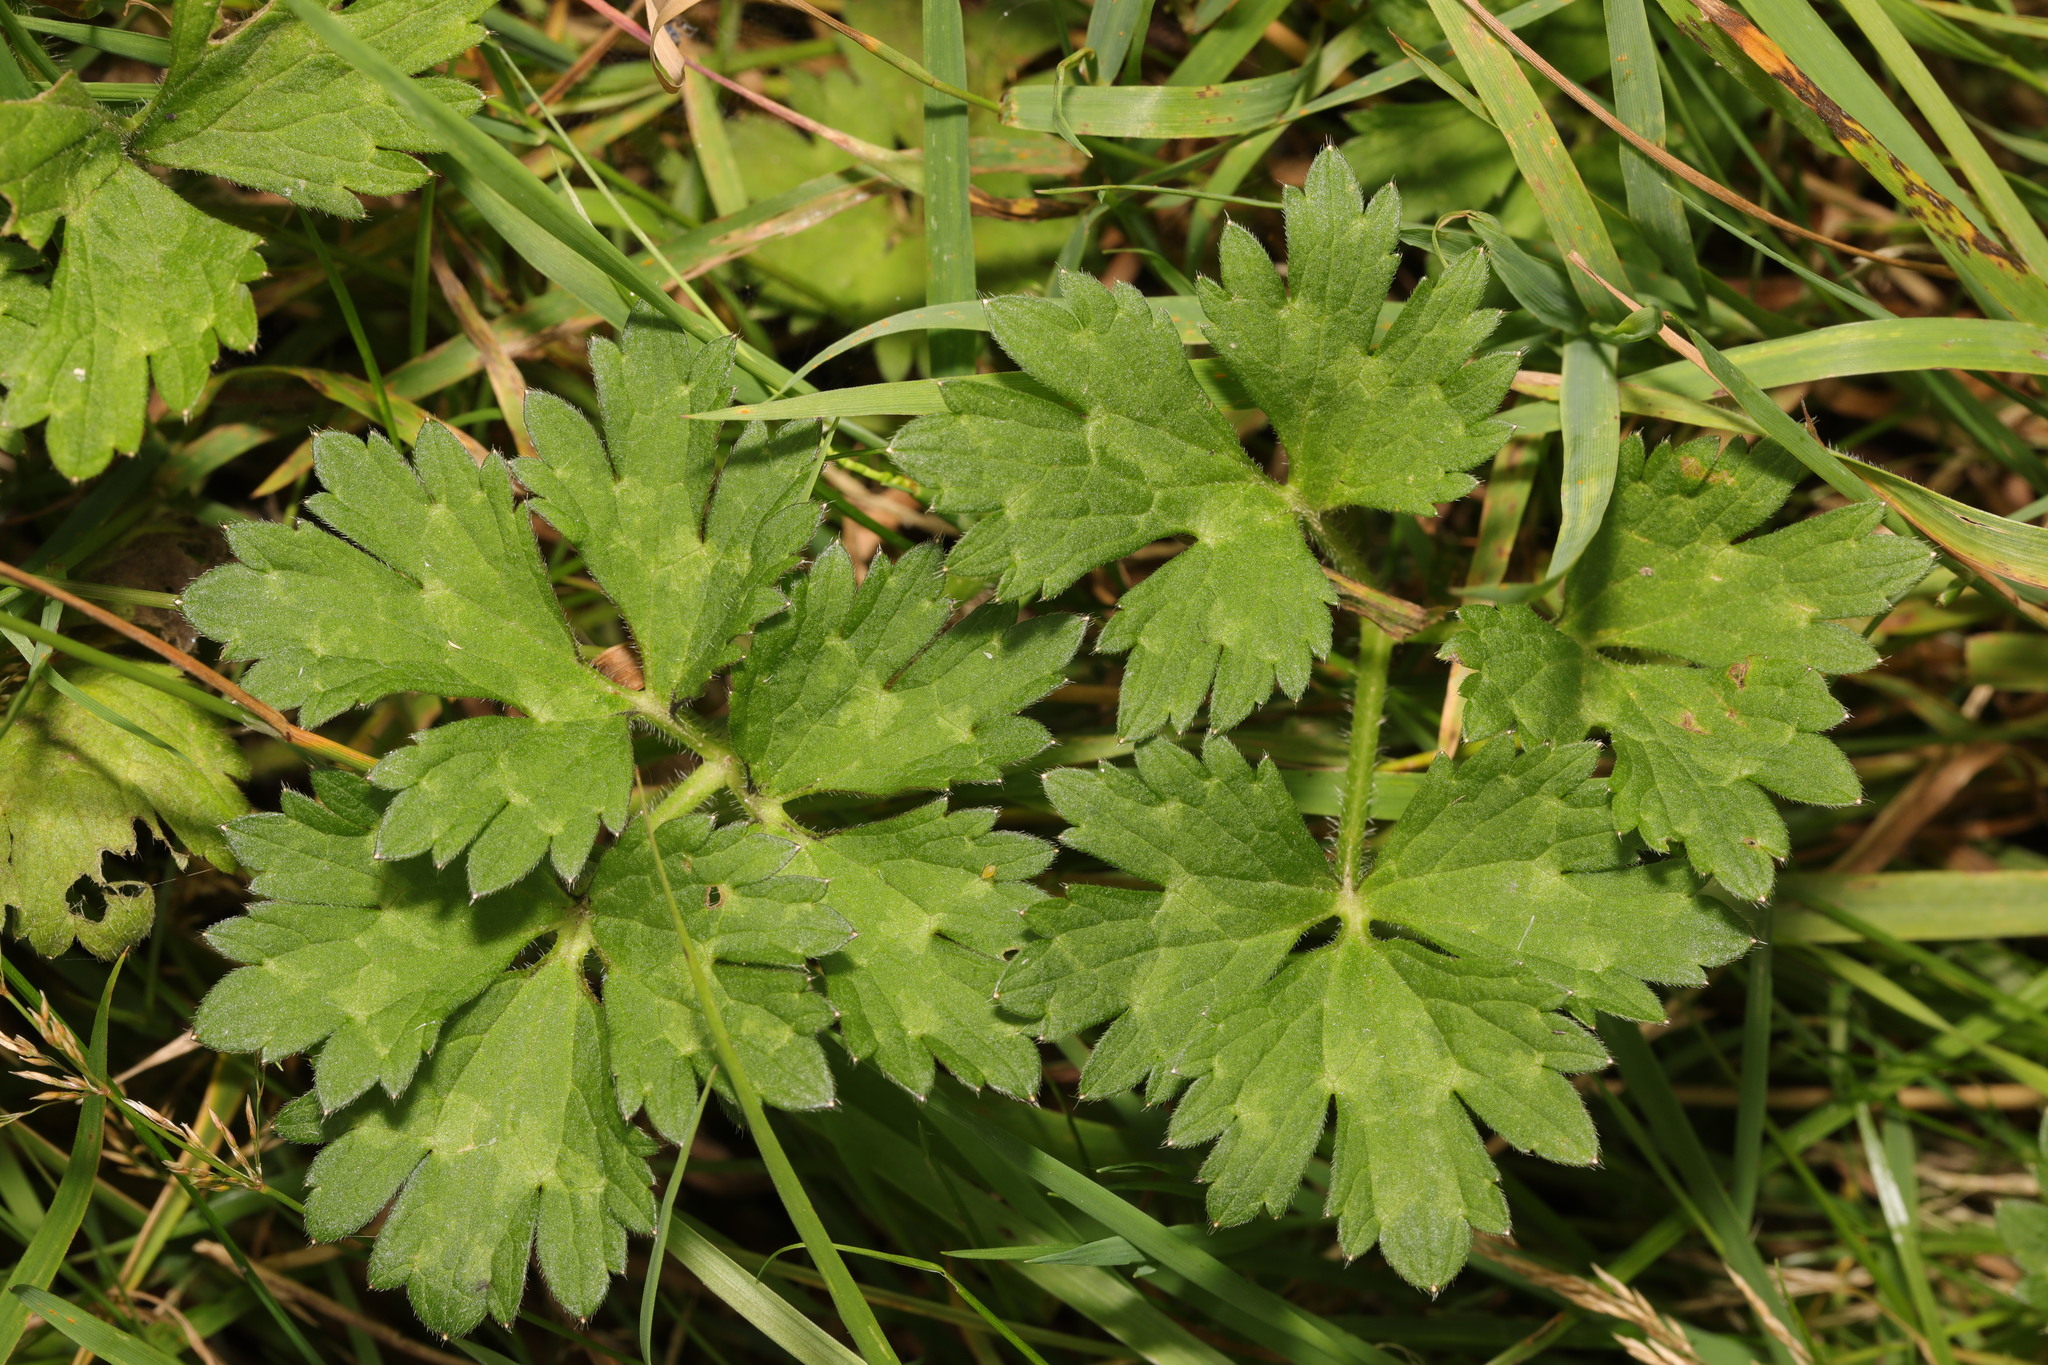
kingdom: Plantae
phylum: Tracheophyta
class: Magnoliopsida
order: Ranunculales
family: Ranunculaceae
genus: Ranunculus
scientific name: Ranunculus repens
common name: Creeping buttercup
